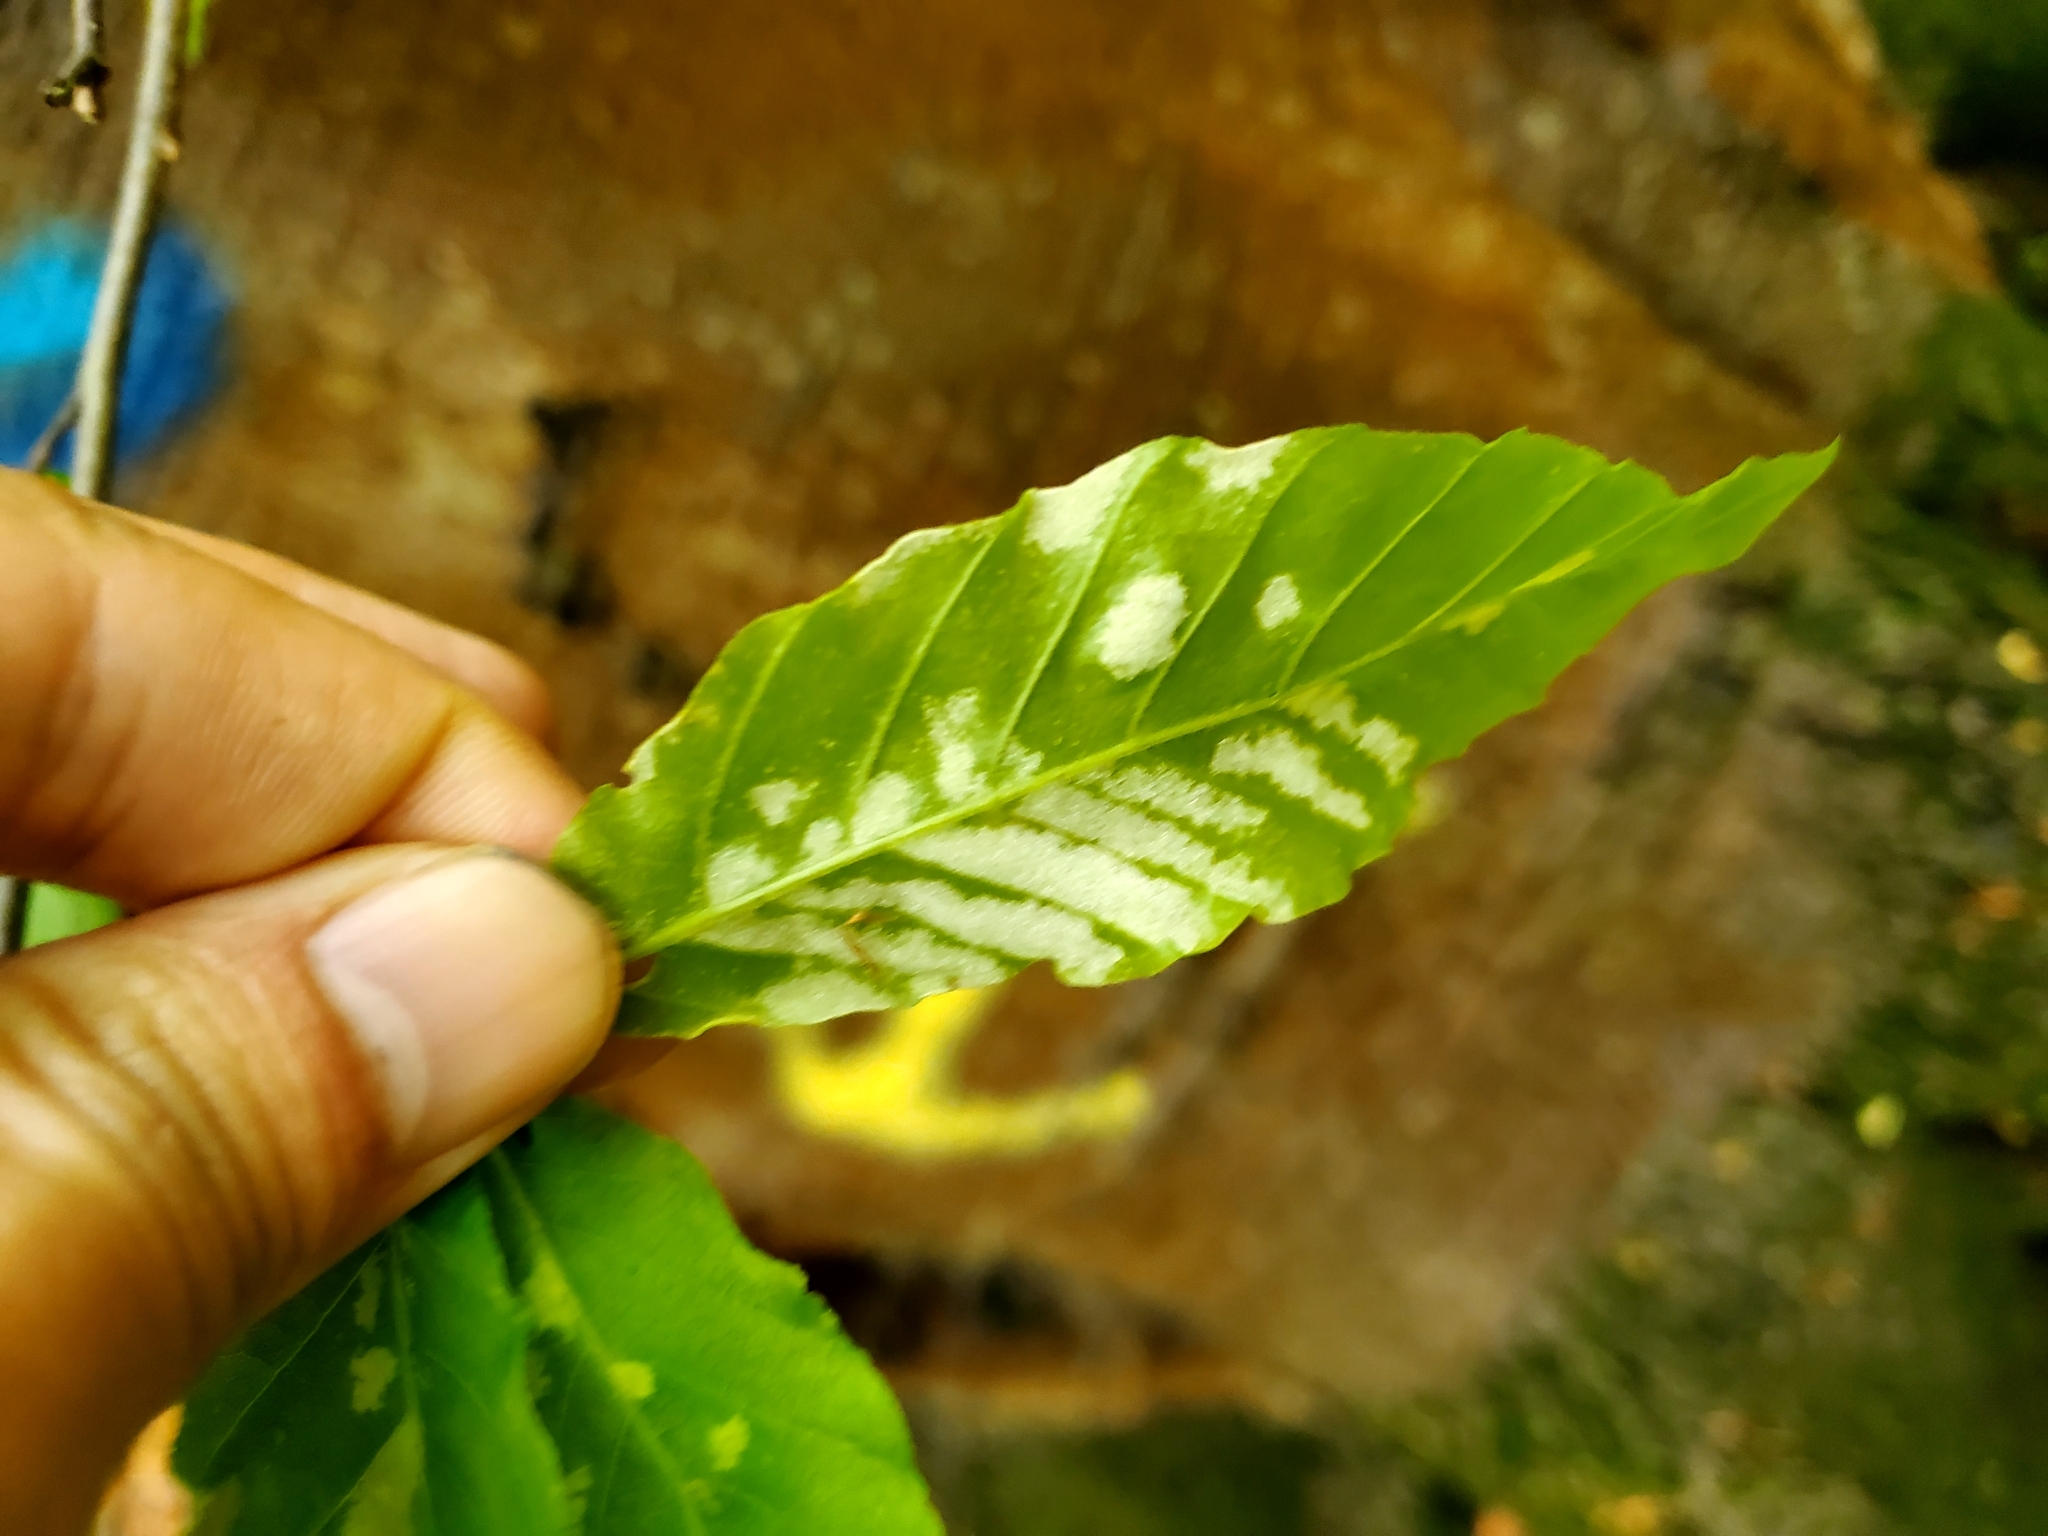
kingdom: Animalia
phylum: Arthropoda
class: Arachnida
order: Trombidiformes
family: Eriophyidae
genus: Acalitus
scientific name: Acalitus
